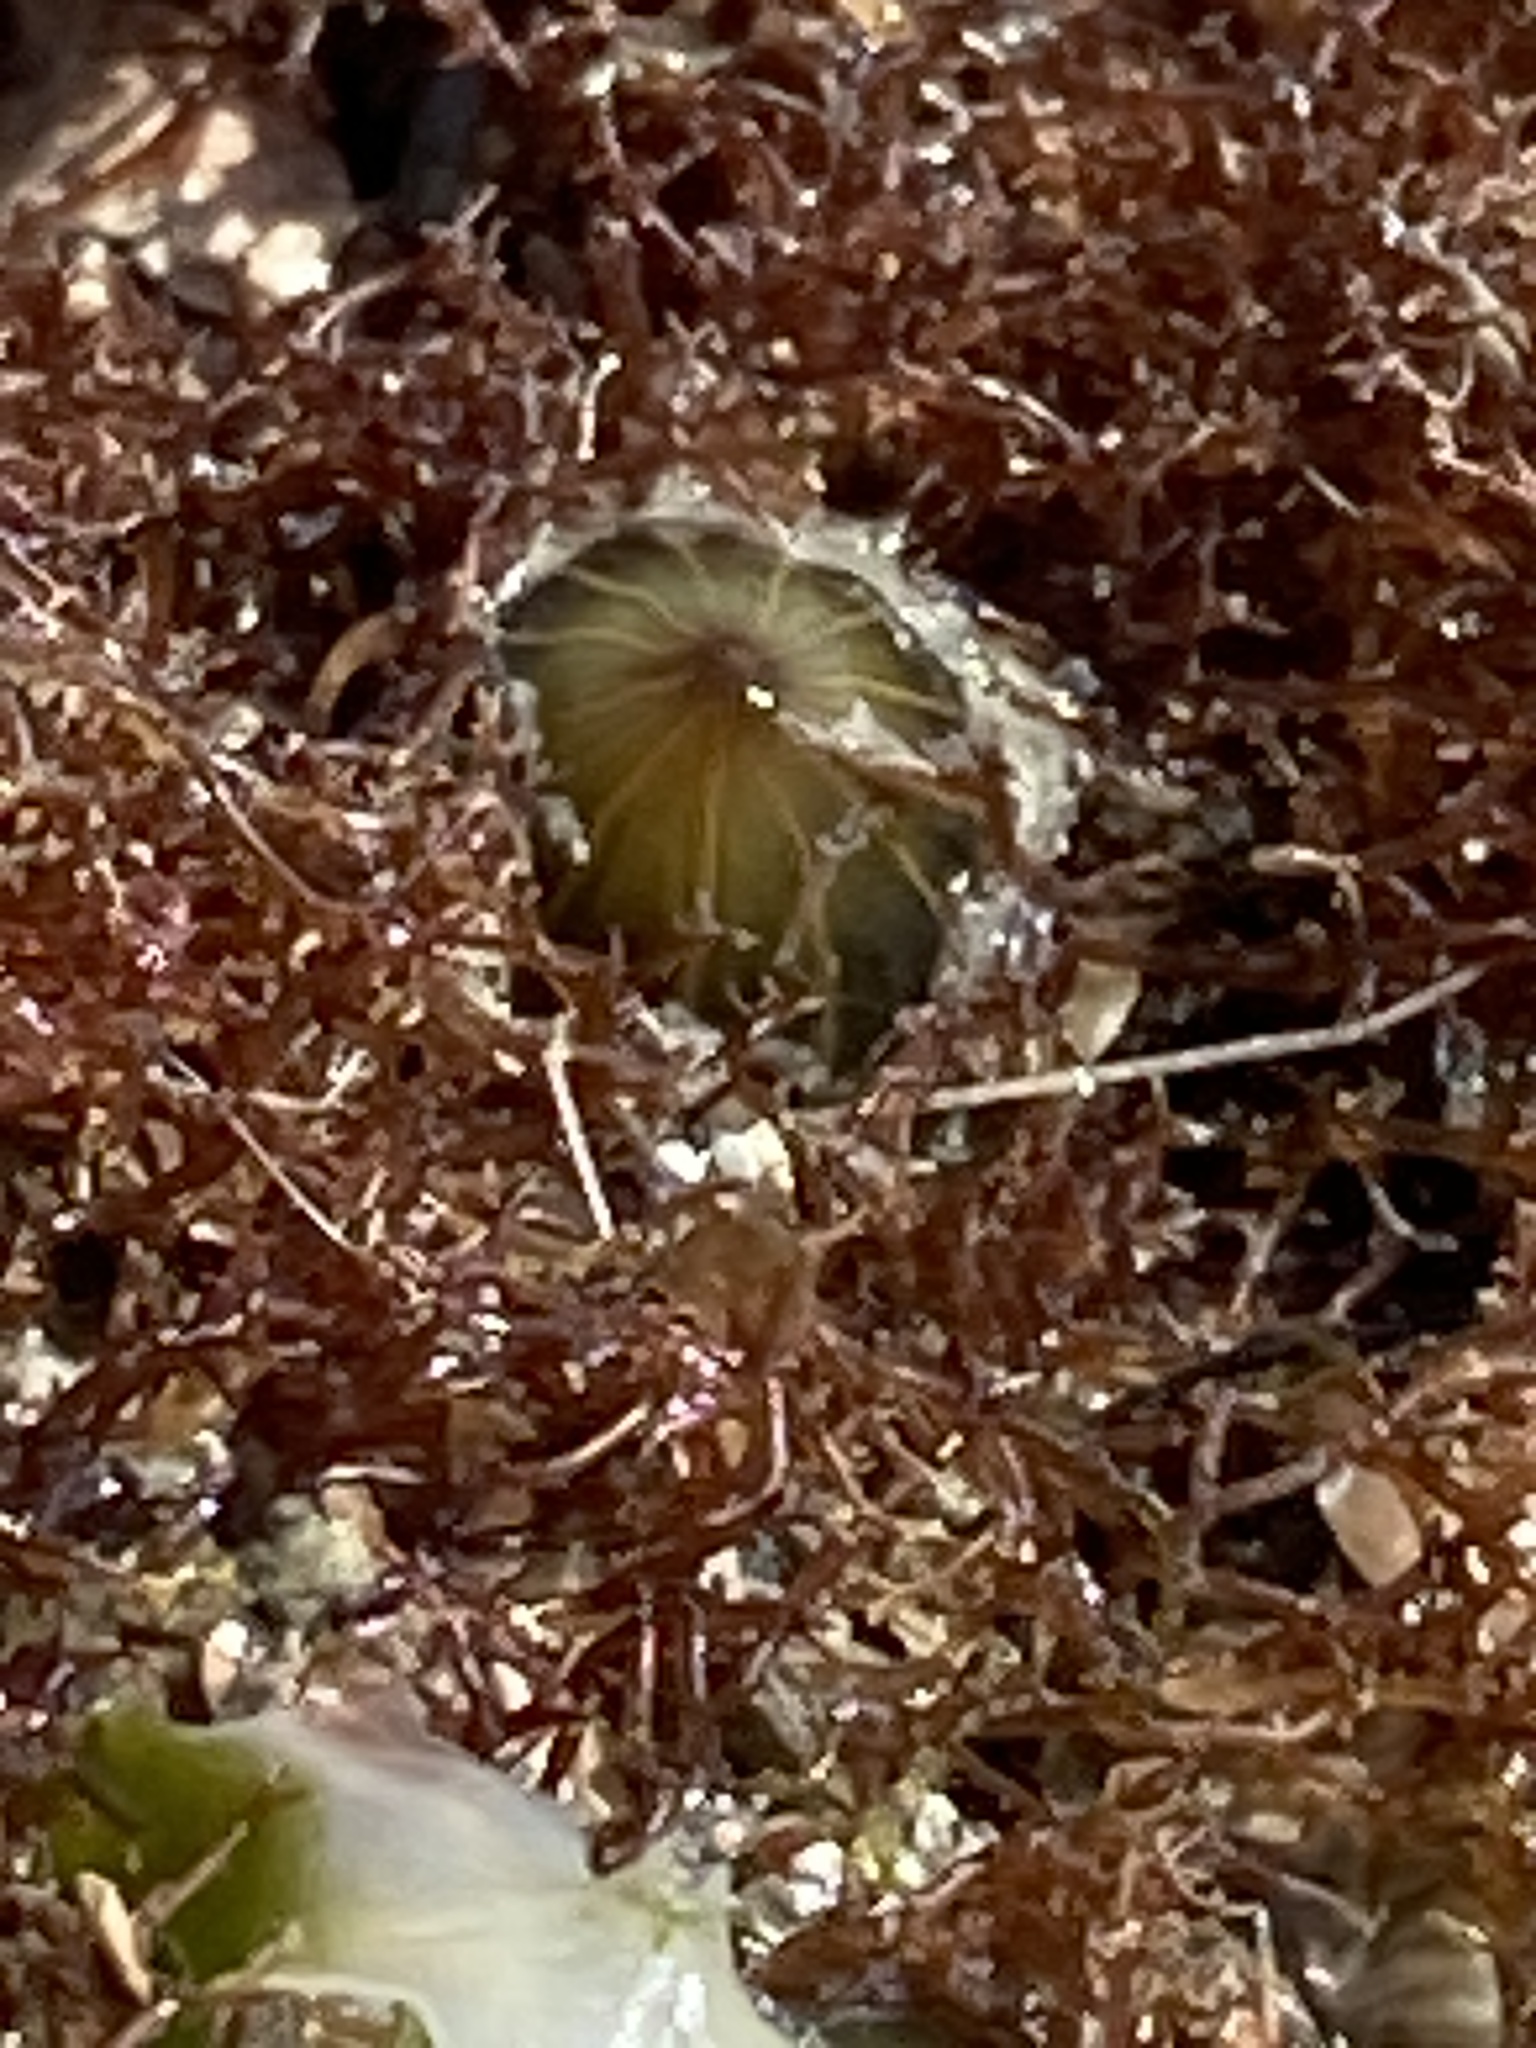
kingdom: Animalia
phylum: Cnidaria
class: Anthozoa
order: Actiniaria
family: Diadumenidae
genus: Diadumene
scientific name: Diadumene lineata
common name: Orange-striped anemone
